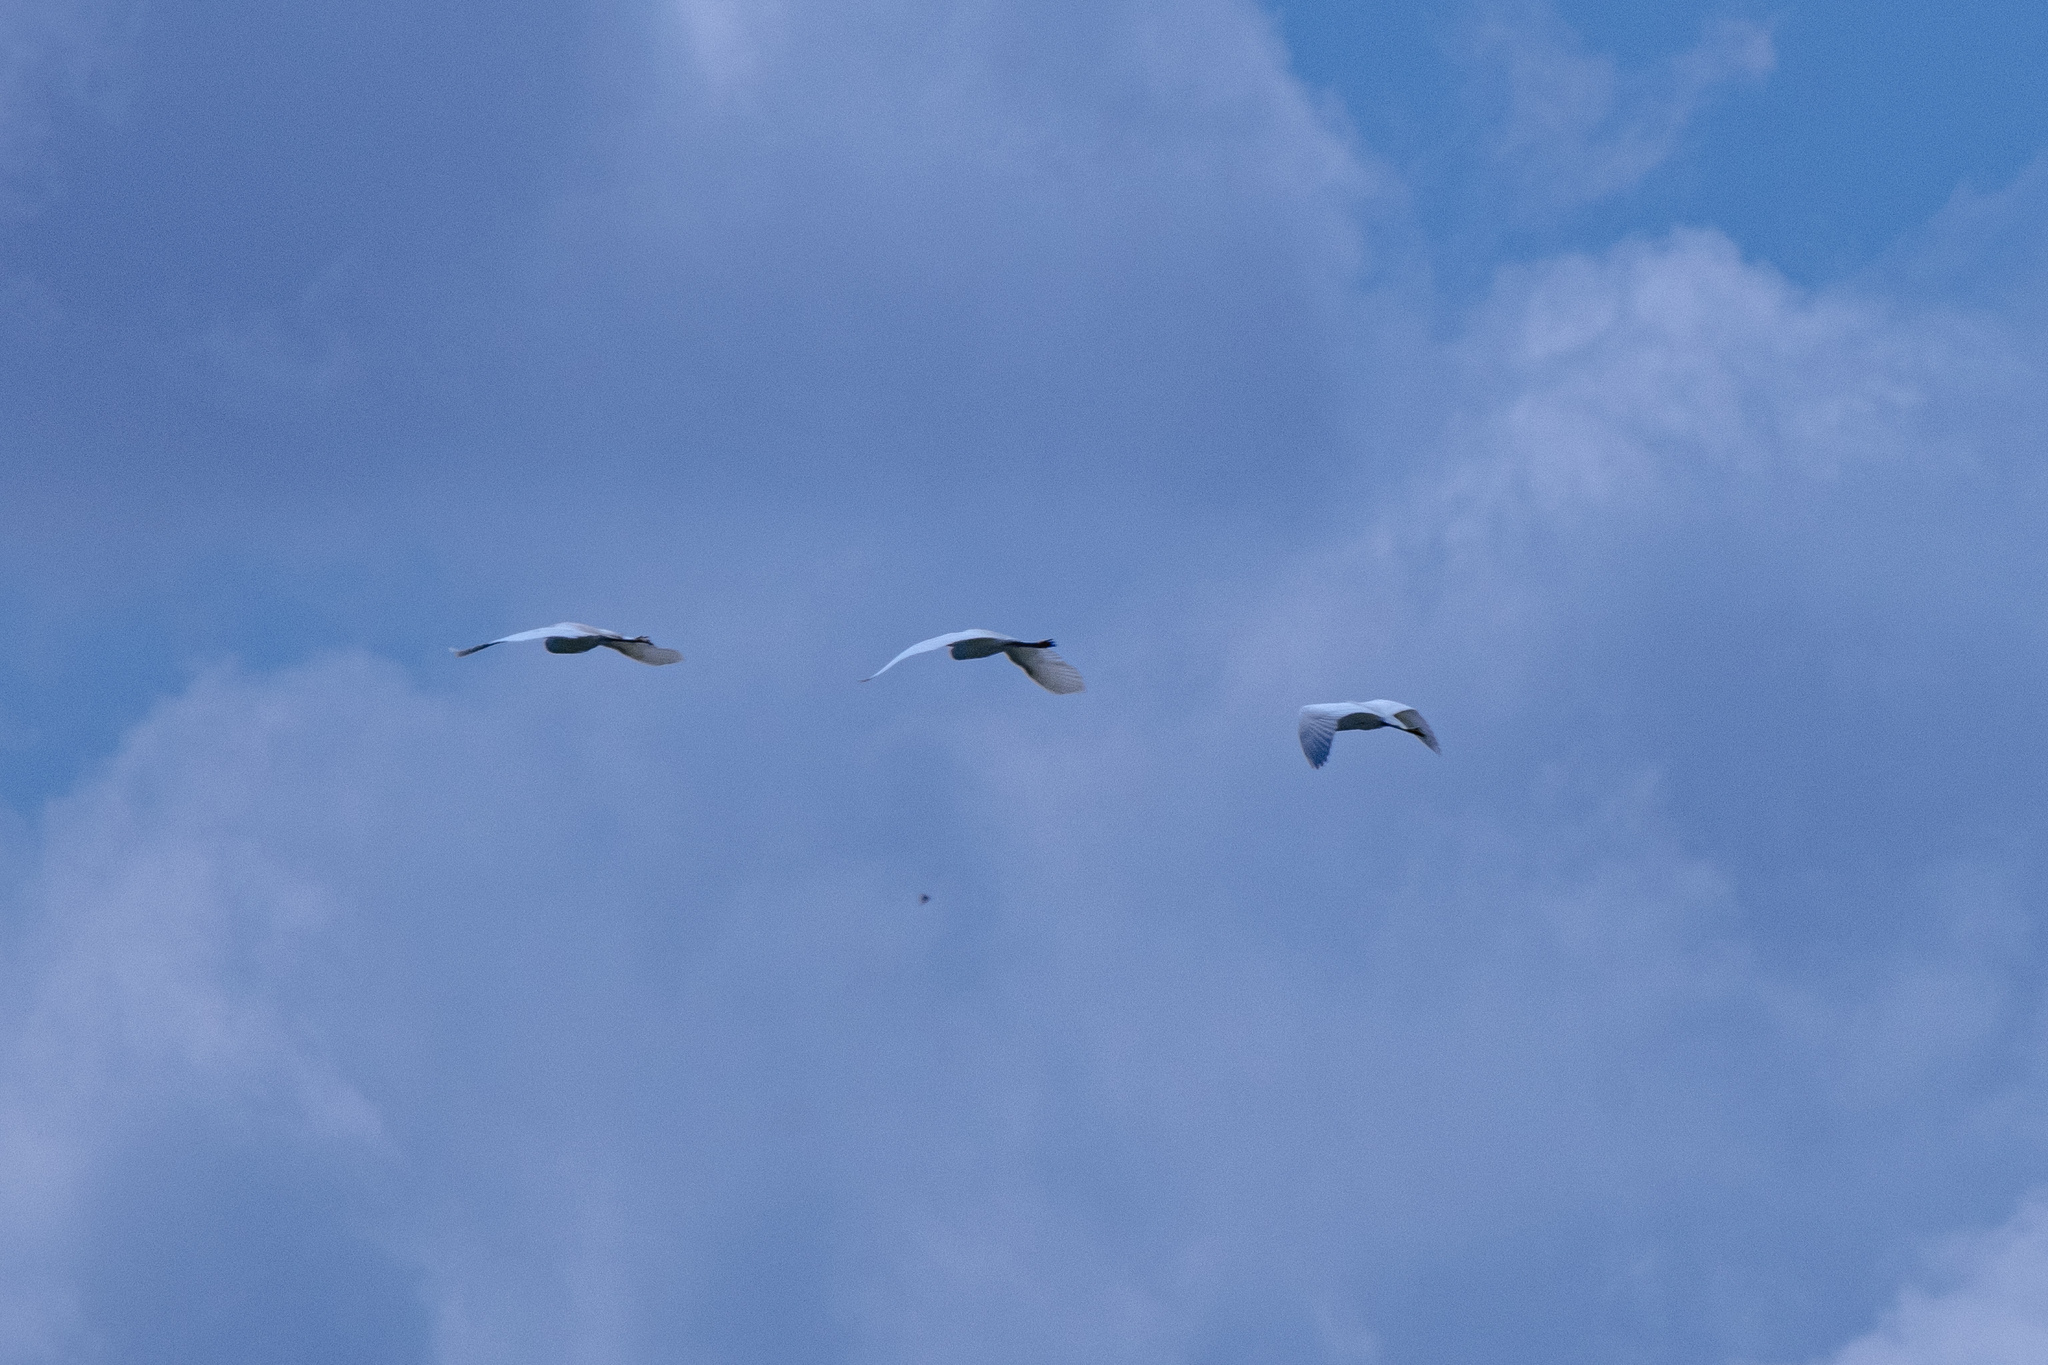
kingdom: Animalia
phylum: Chordata
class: Aves
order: Pelecaniformes
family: Ardeidae
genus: Egretta
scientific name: Egretta garzetta
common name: Little egret
